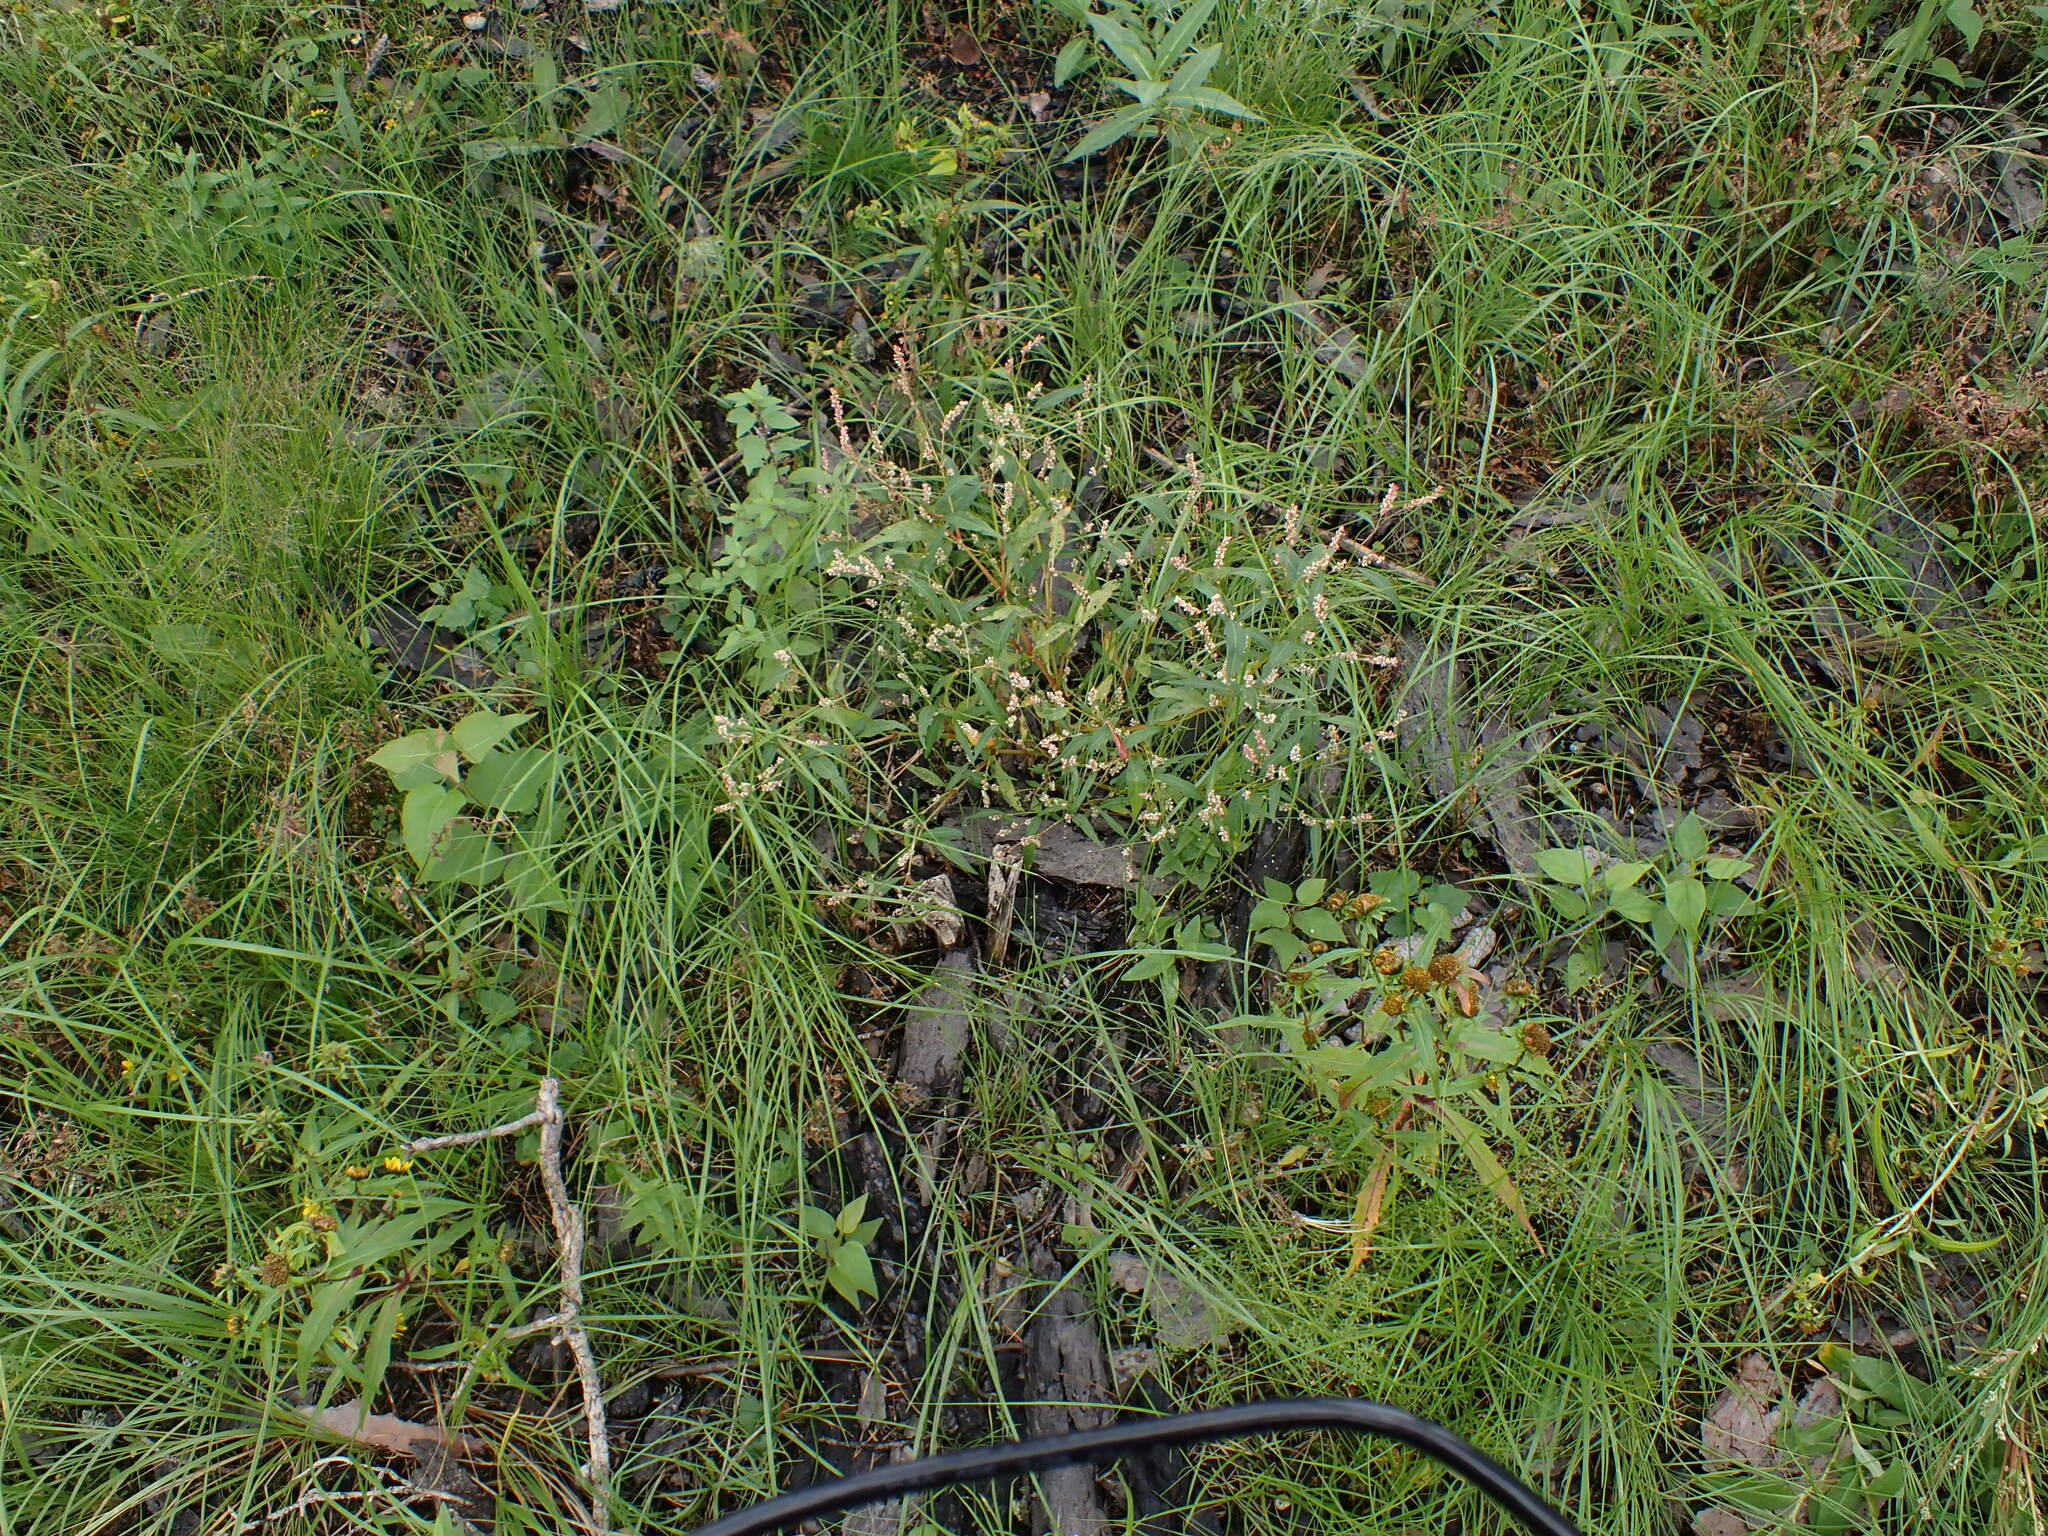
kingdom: Plantae
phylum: Tracheophyta
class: Magnoliopsida
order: Caryophyllales
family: Polygonaceae
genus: Persicaria
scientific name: Persicaria lapathifolia
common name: Curlytop knotweed
